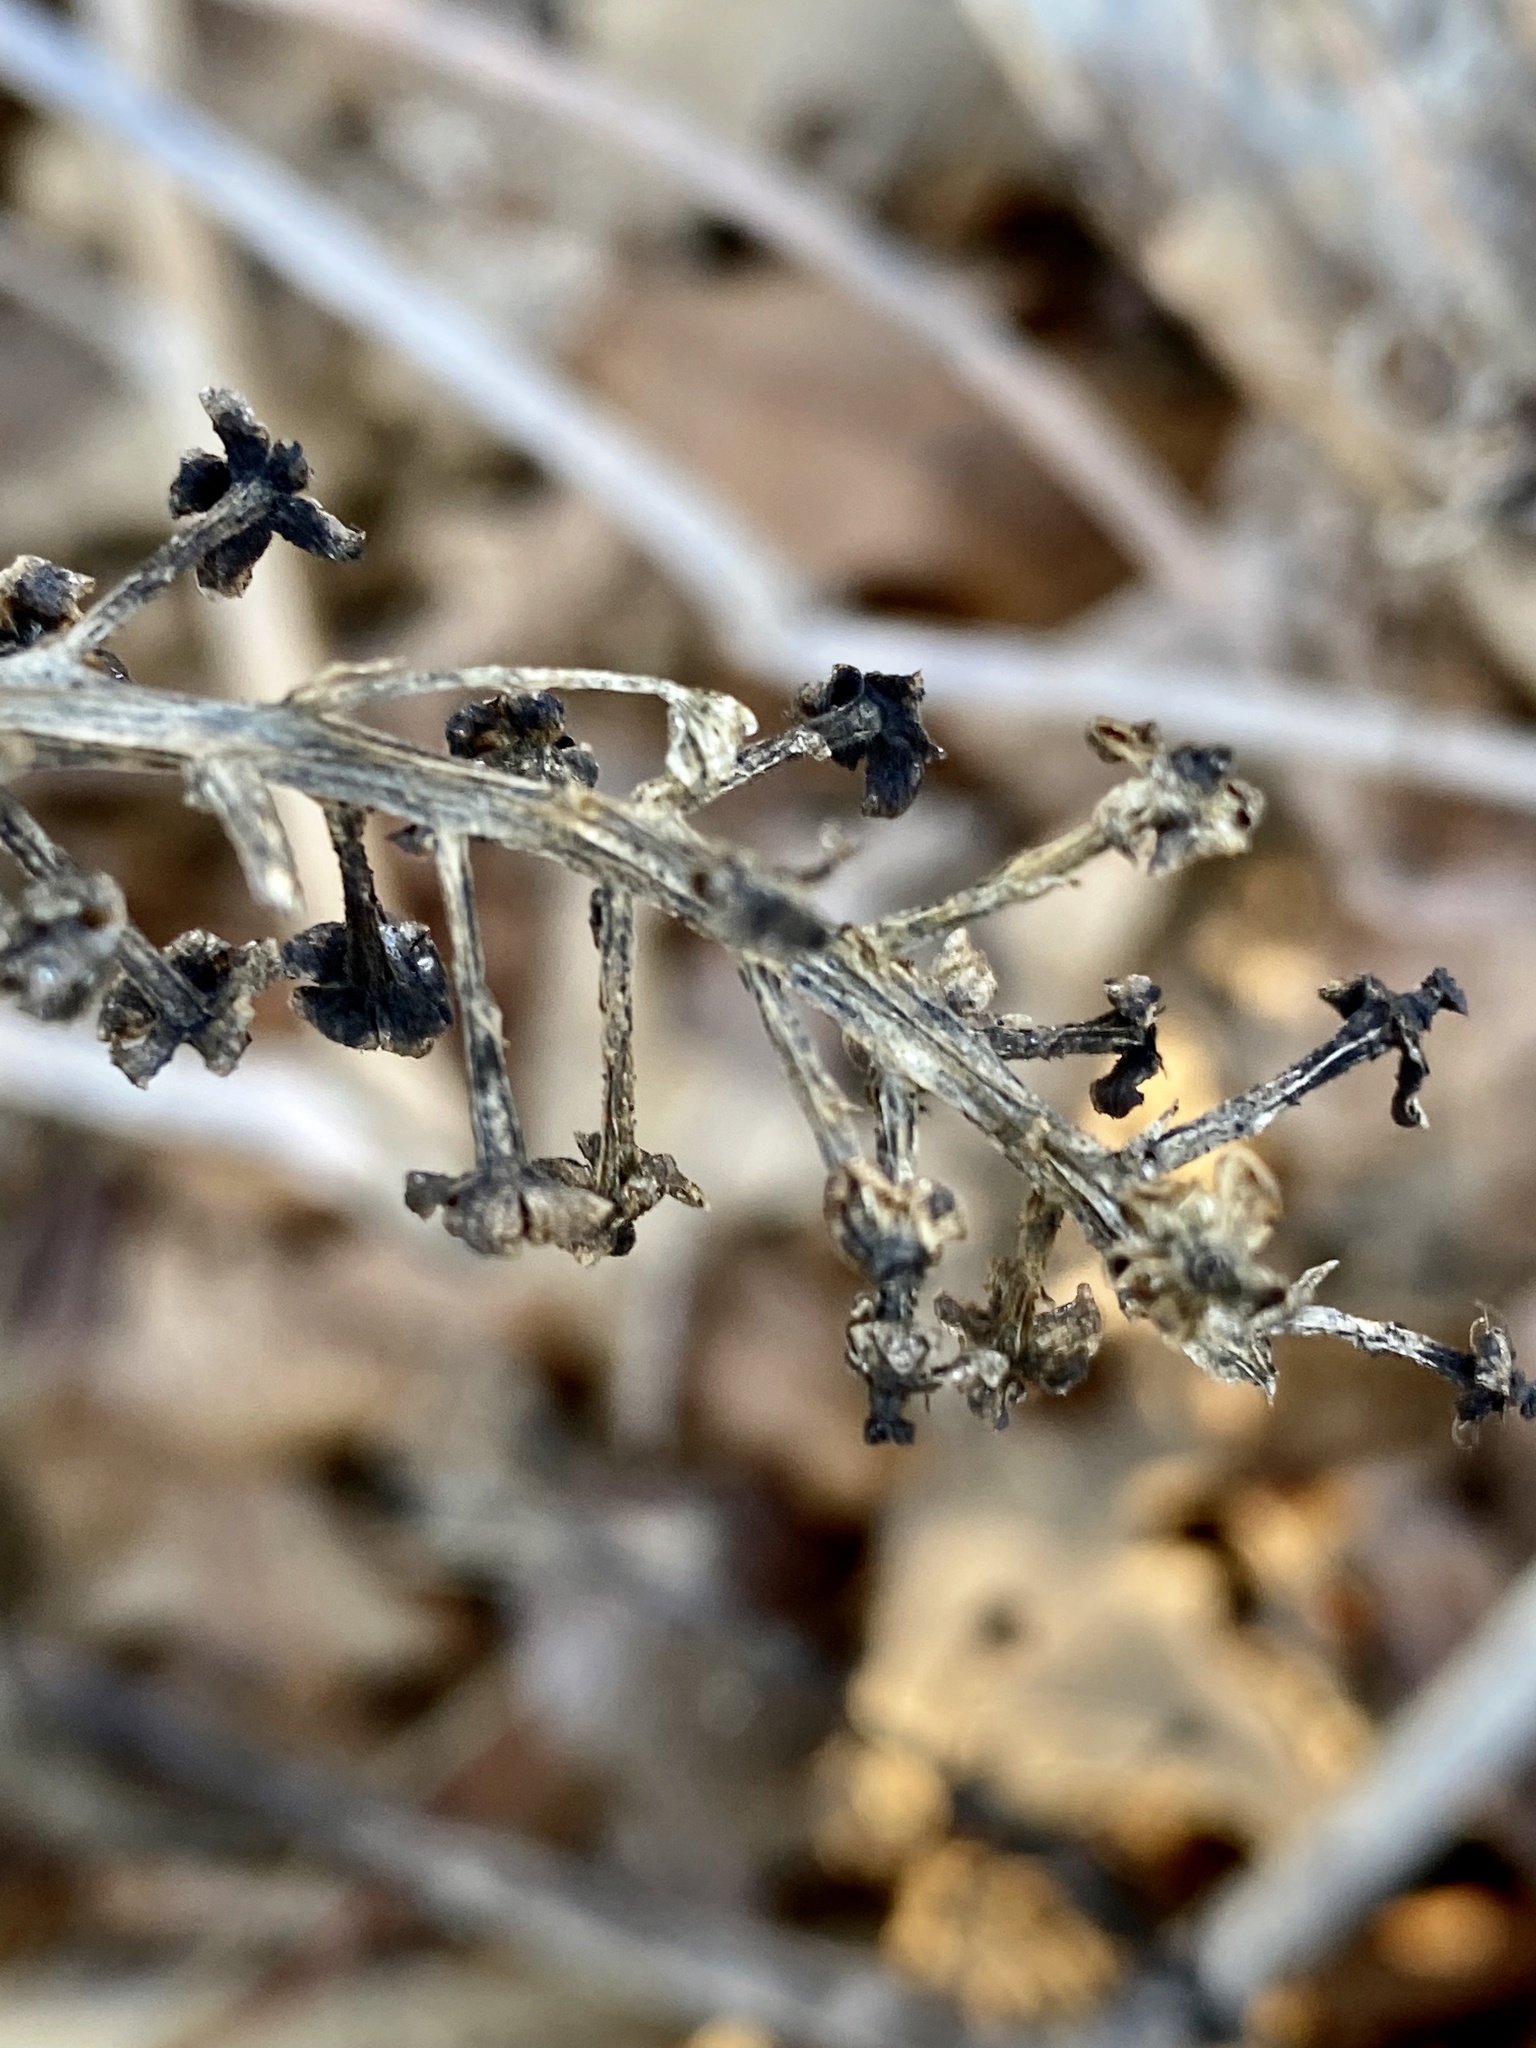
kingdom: Plantae
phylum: Tracheophyta
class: Magnoliopsida
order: Caryophyllales
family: Phytolaccaceae
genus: Phytolacca
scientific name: Phytolacca americana
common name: American pokeweed
